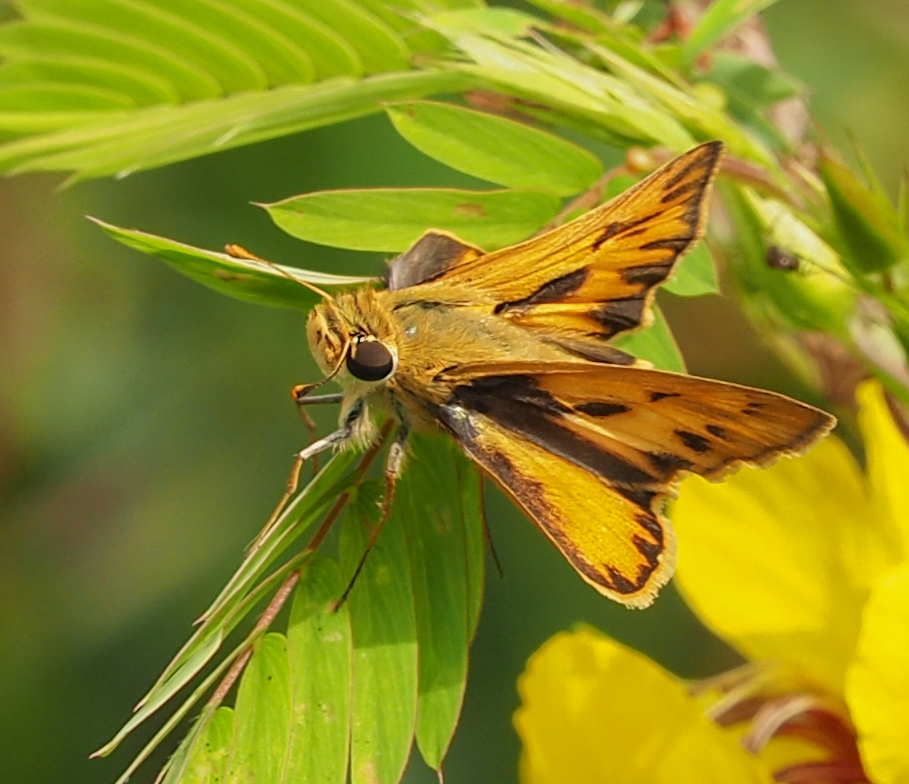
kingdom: Animalia
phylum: Arthropoda
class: Insecta
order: Lepidoptera
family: Hesperiidae
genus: Hylephila
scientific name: Hylephila phyleus
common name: Fiery skipper
